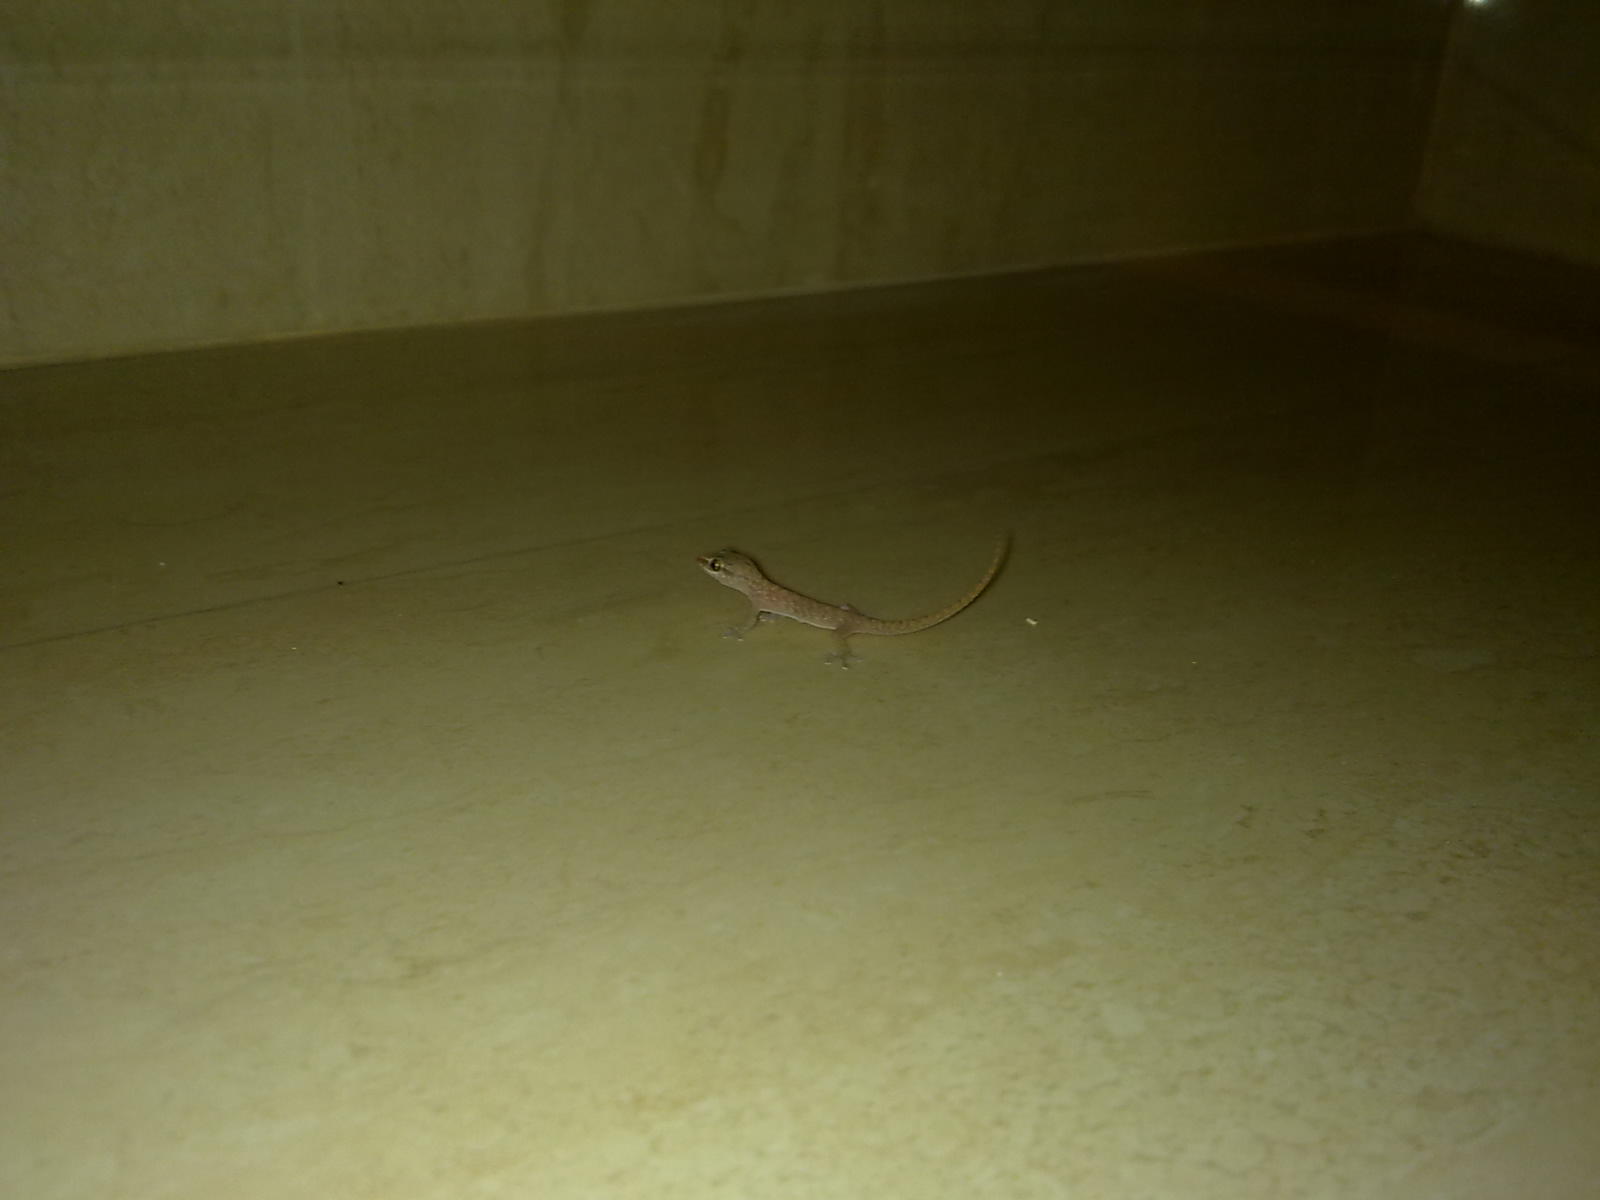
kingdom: Animalia
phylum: Chordata
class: Squamata
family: Gekkonidae
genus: Hemidactylus
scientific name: Hemidactylus robustus
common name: Heyden’s gecko
